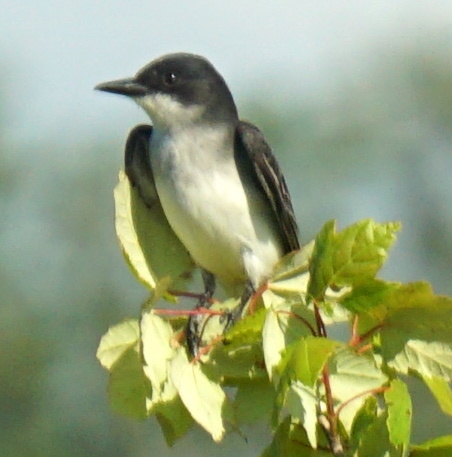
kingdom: Animalia
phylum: Chordata
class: Aves
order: Passeriformes
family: Tyrannidae
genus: Tyrannus
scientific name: Tyrannus tyrannus
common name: Eastern kingbird
